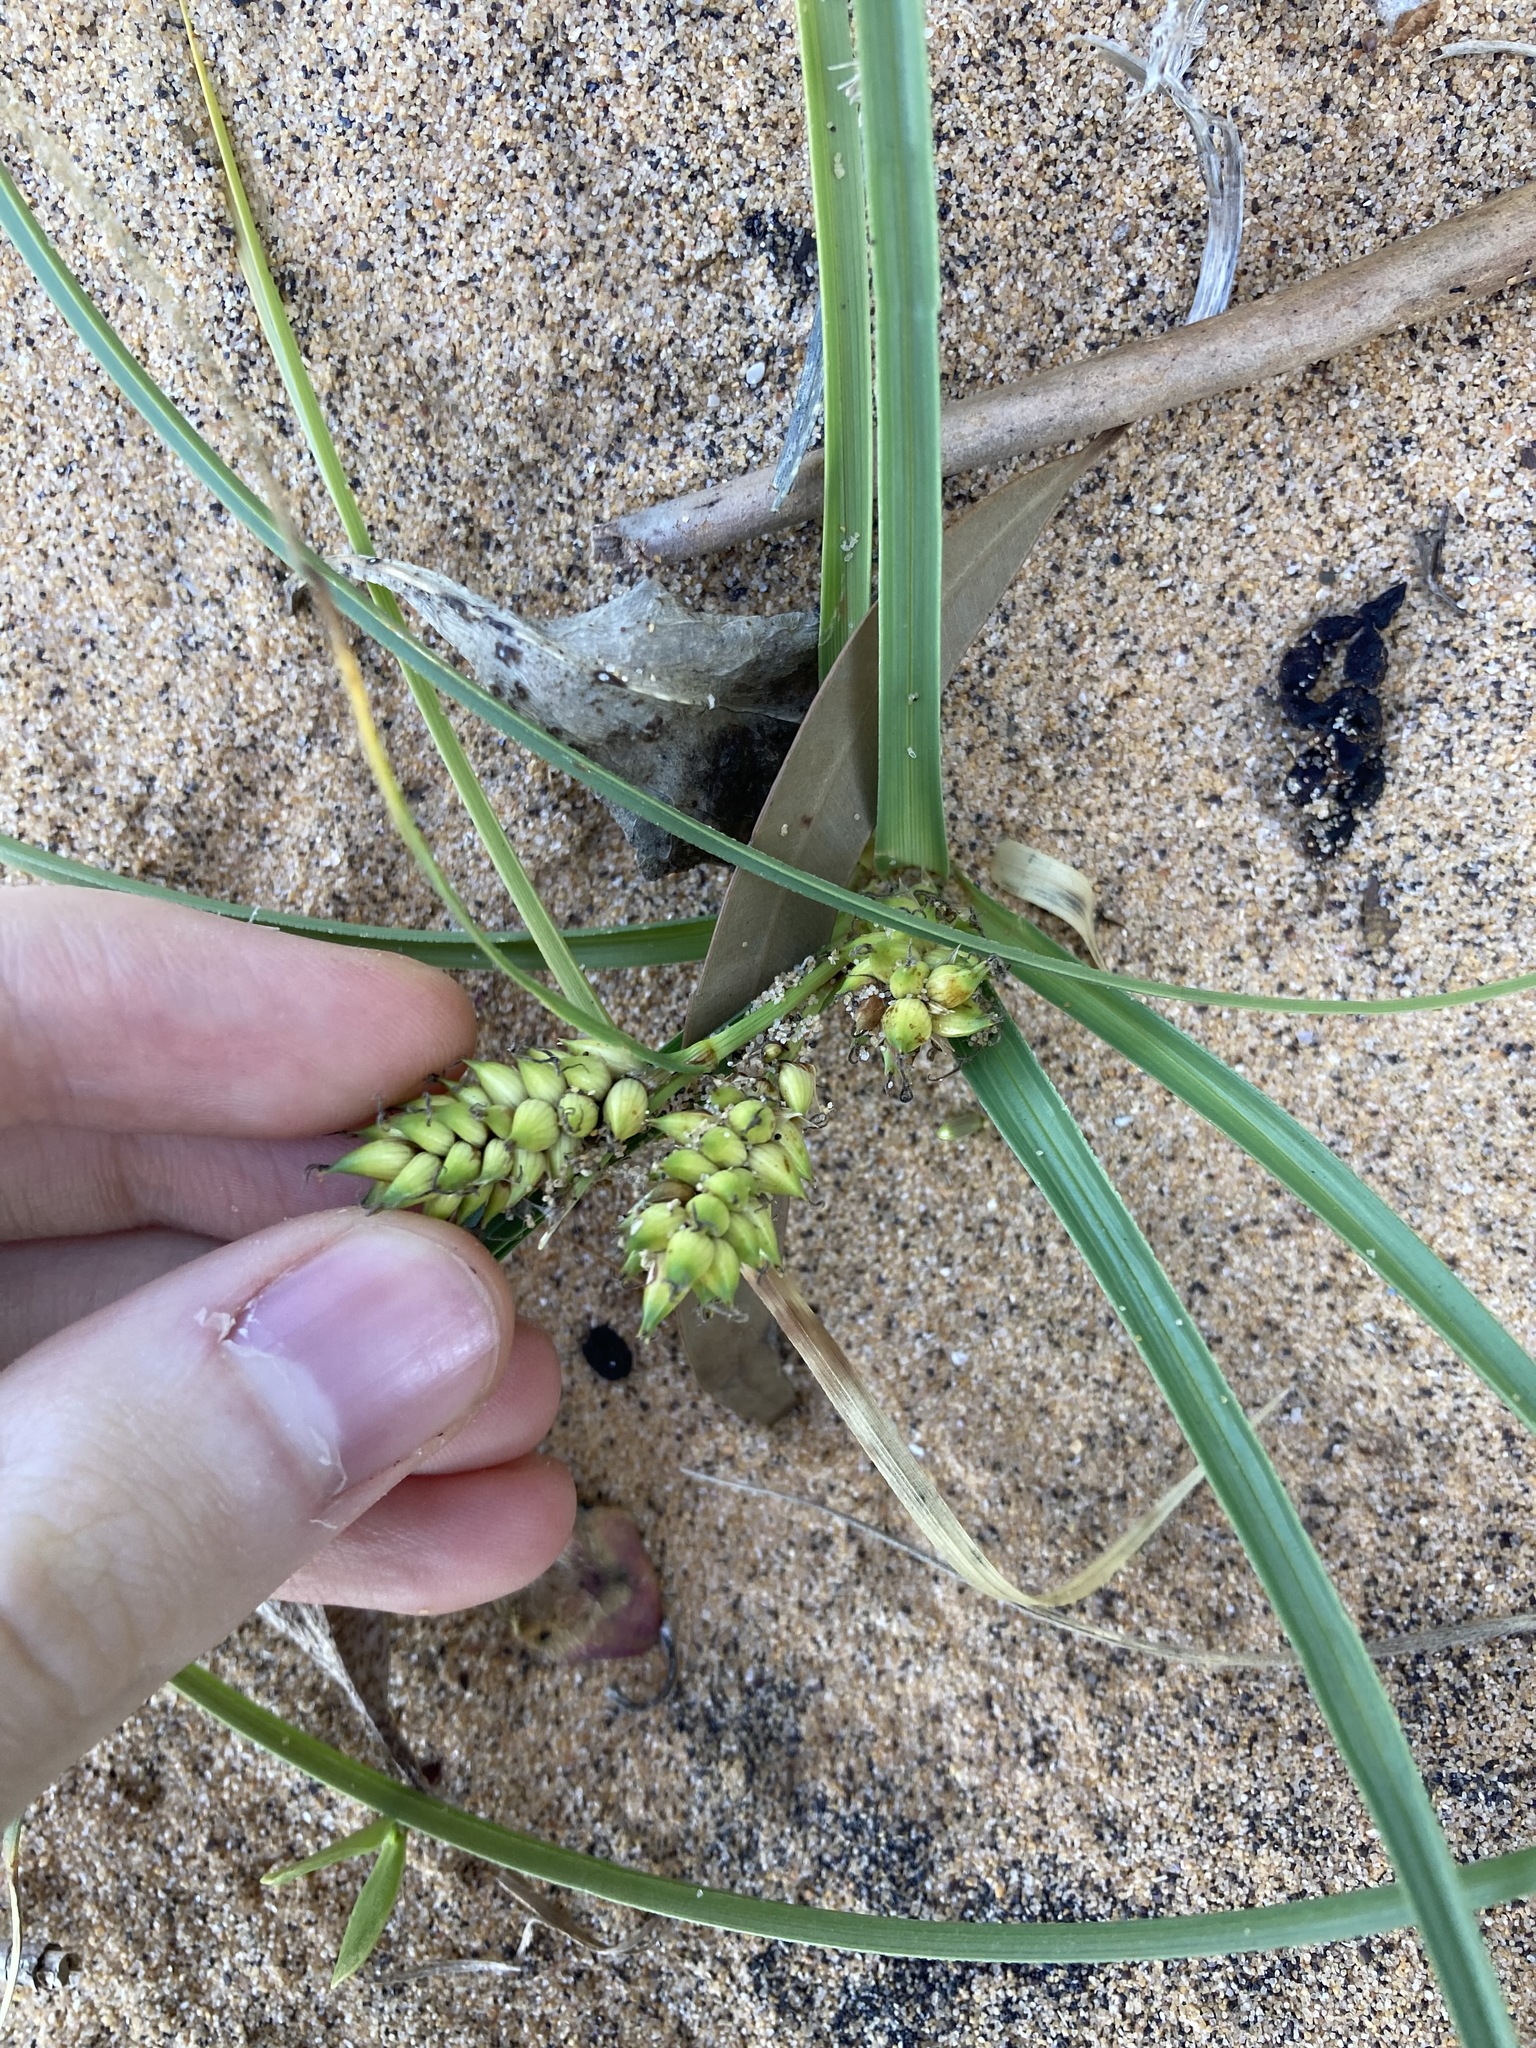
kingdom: Plantae
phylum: Tracheophyta
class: Liliopsida
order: Poales
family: Cyperaceae
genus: Carex
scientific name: Carex pumila
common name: Dwarf sedge
